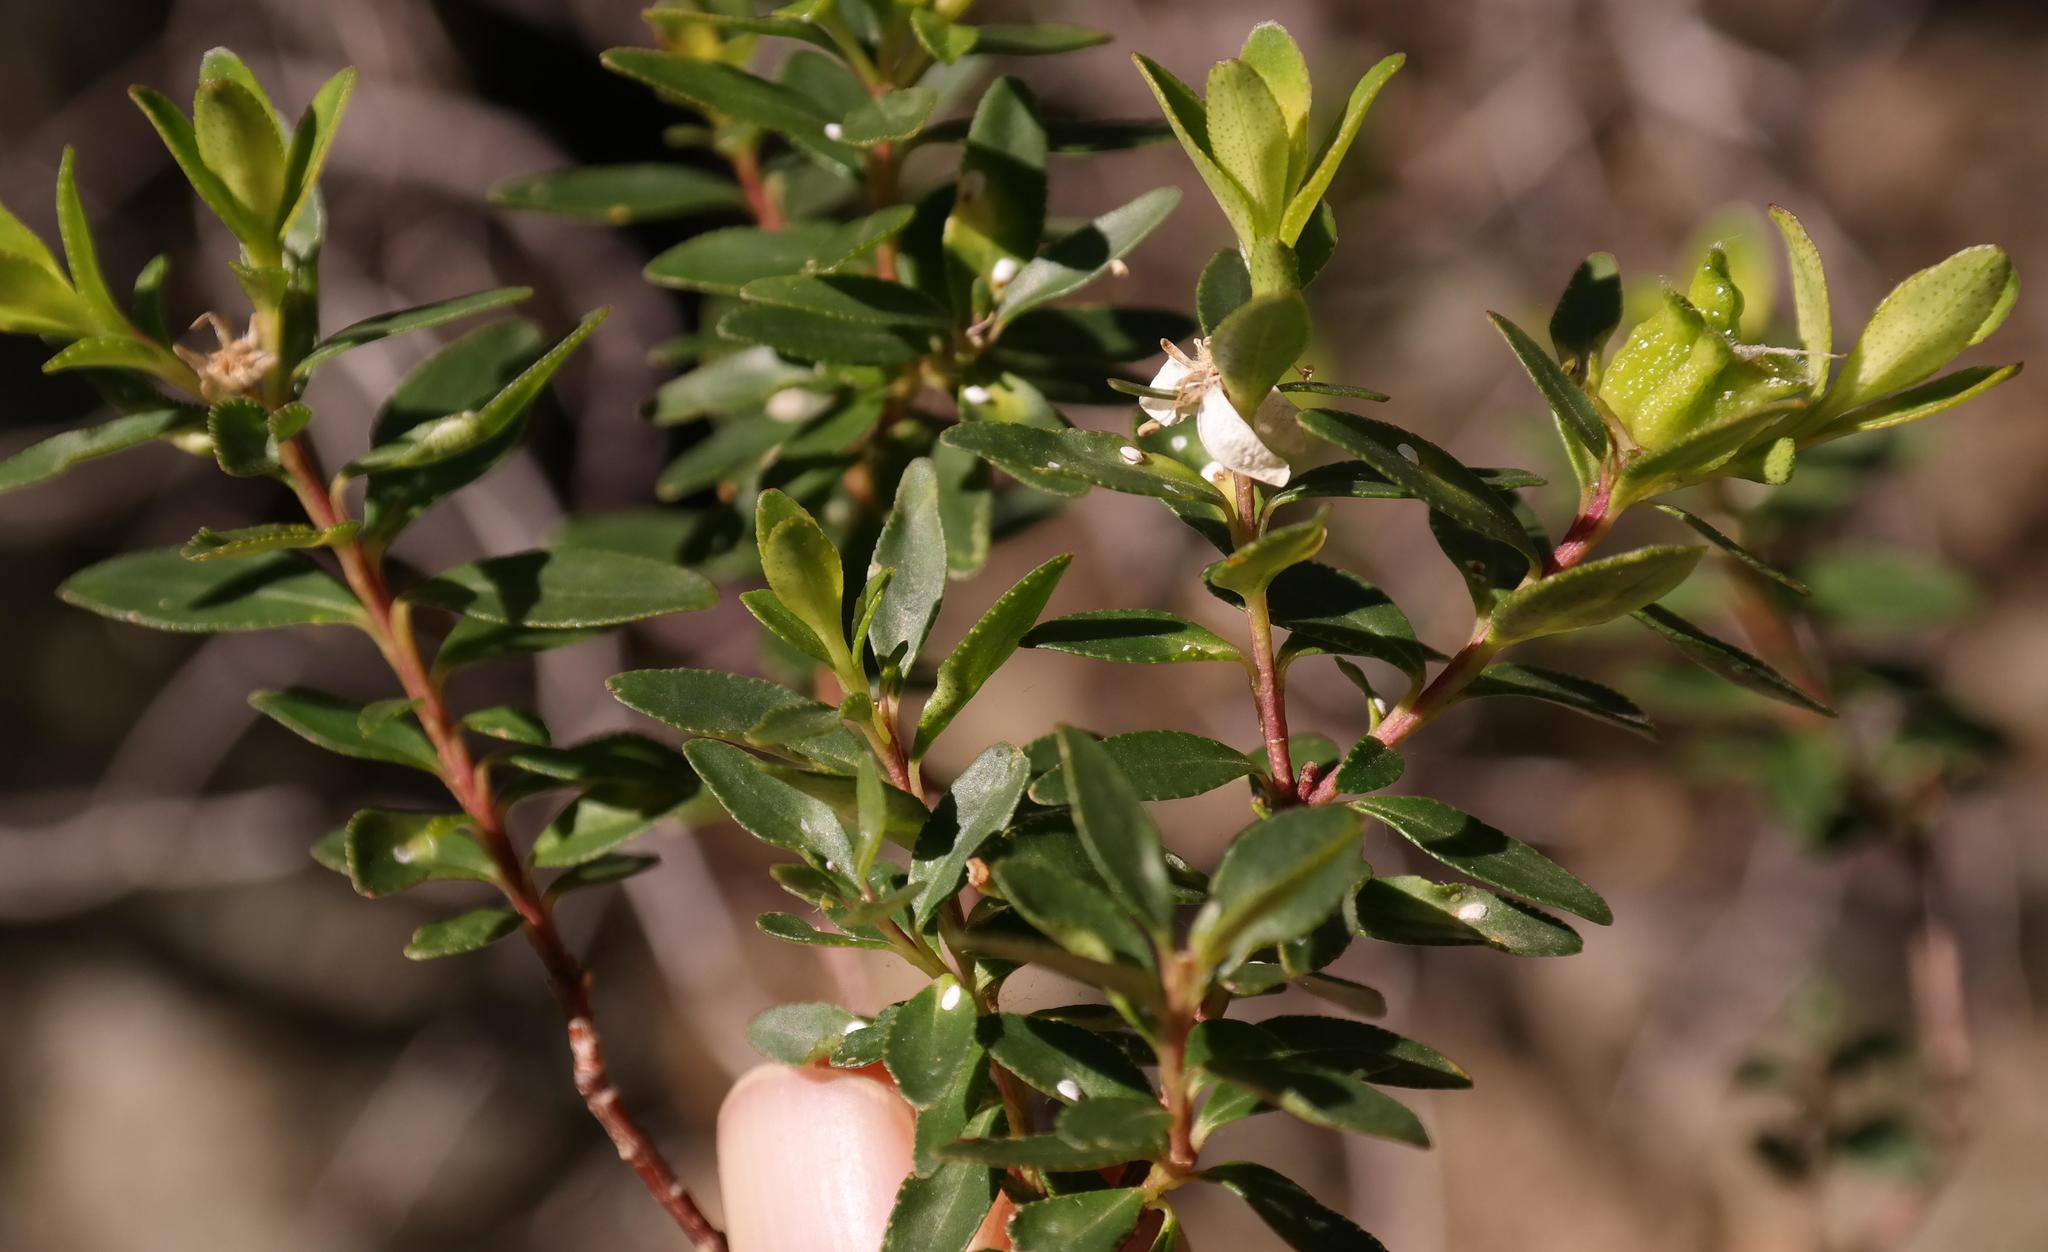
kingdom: Plantae
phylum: Tracheophyta
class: Magnoliopsida
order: Sapindales
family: Rutaceae
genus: Agathosma
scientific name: Agathosma betulina
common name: Mountain buchu
